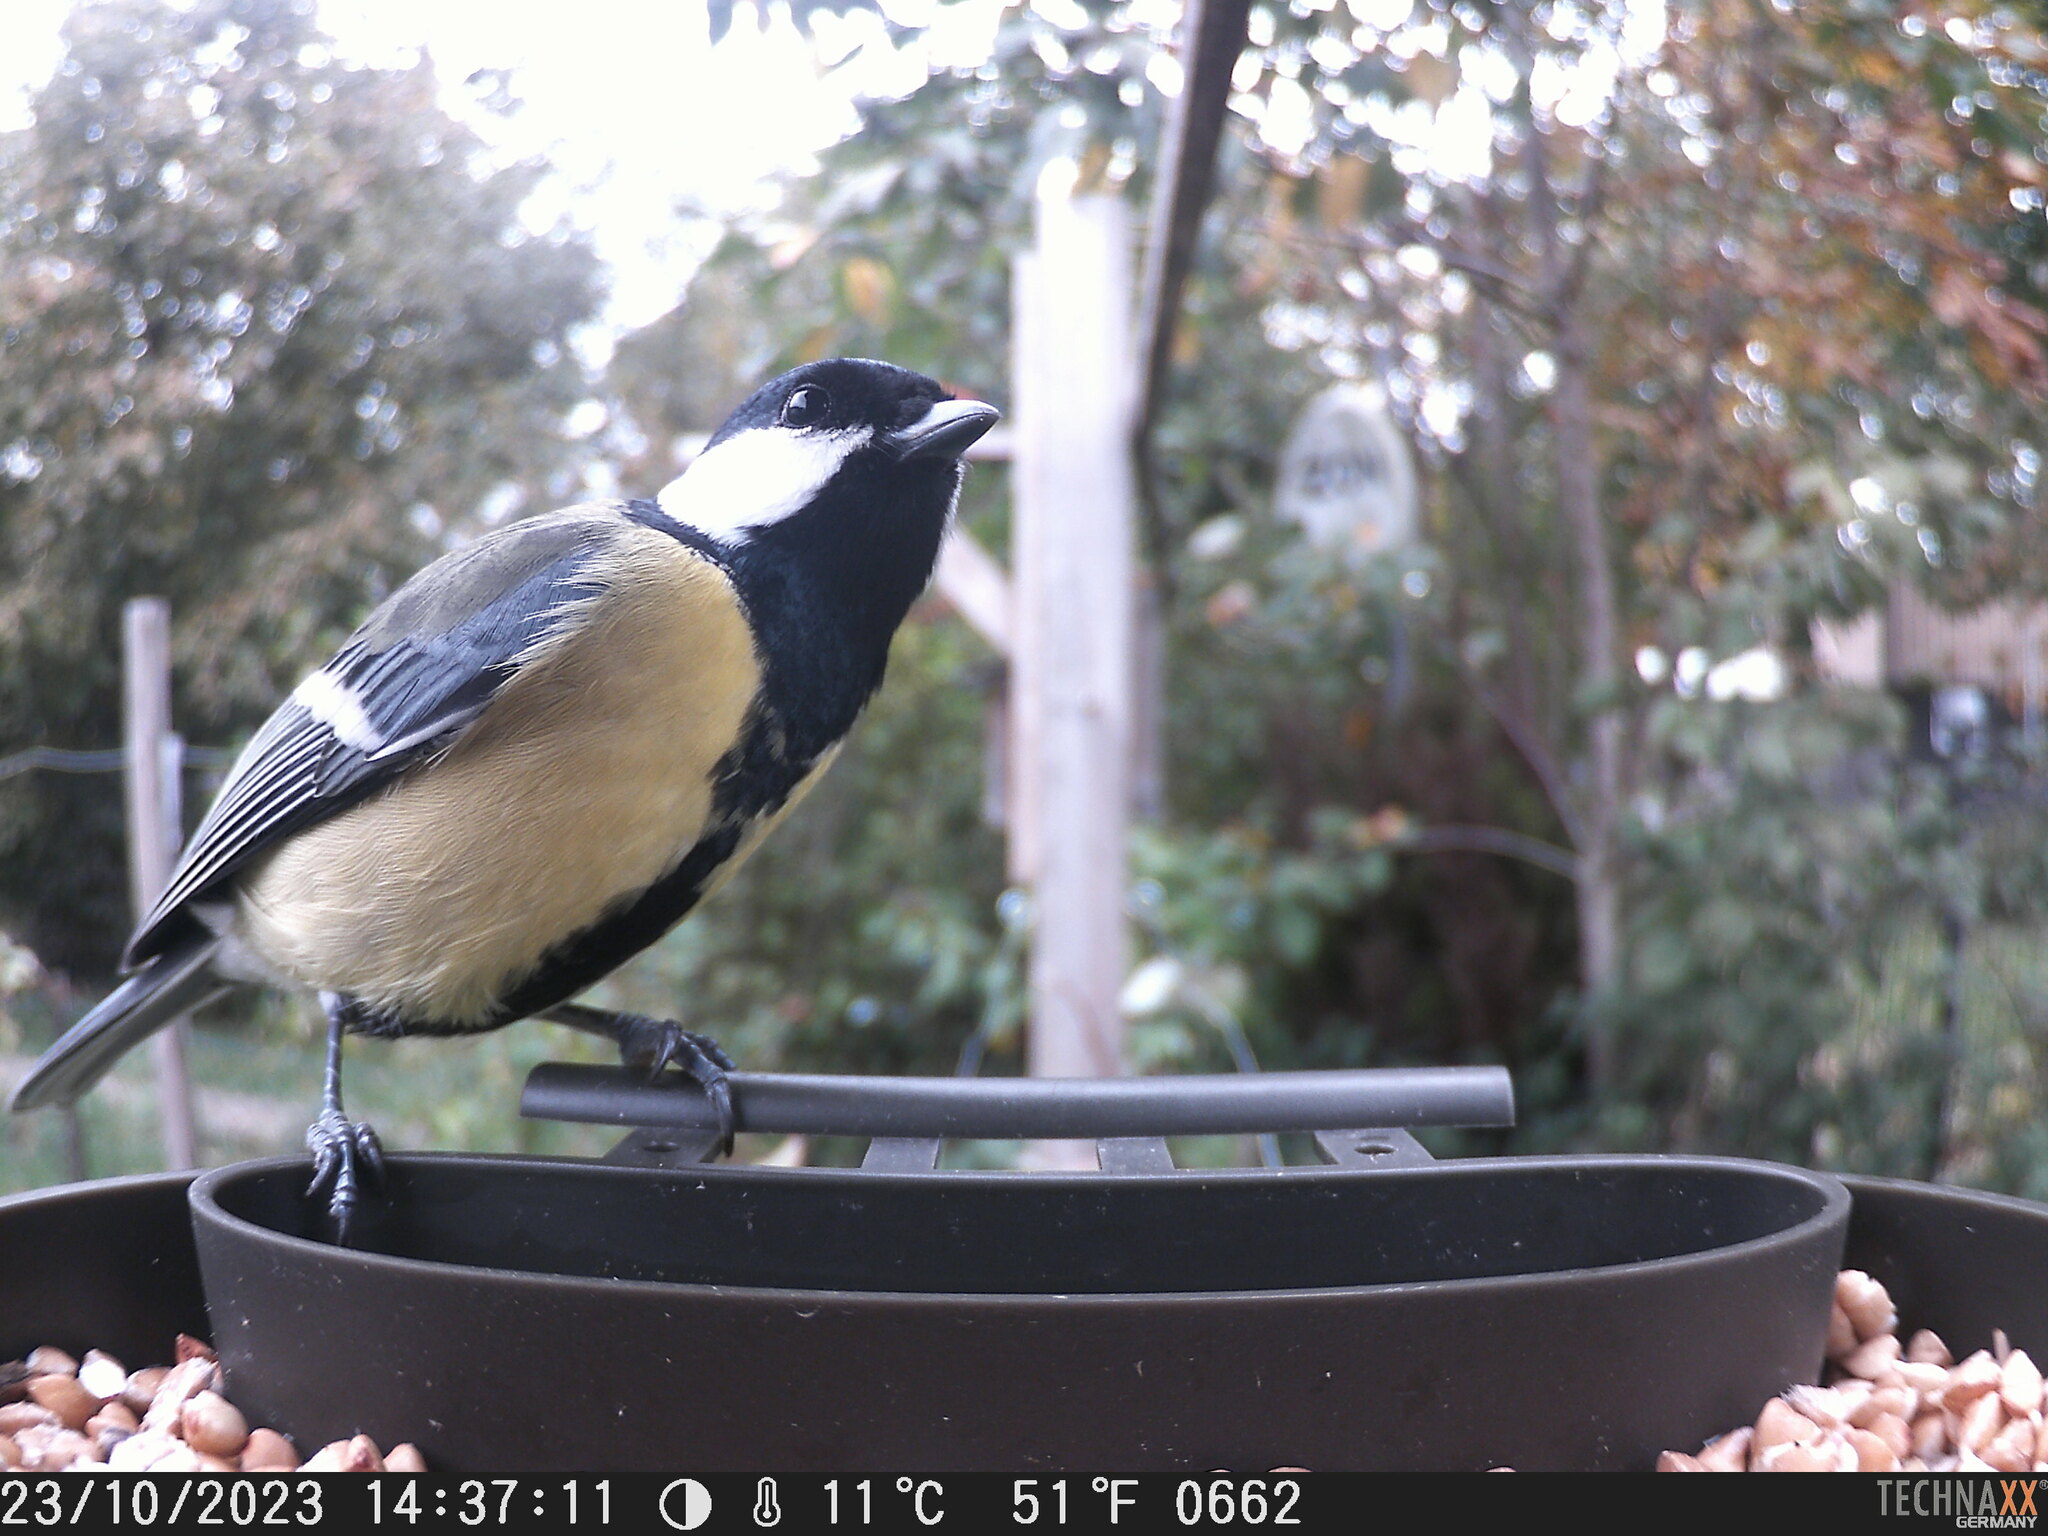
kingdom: Animalia
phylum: Chordata
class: Aves
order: Passeriformes
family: Paridae
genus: Parus
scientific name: Parus major
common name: Great tit
